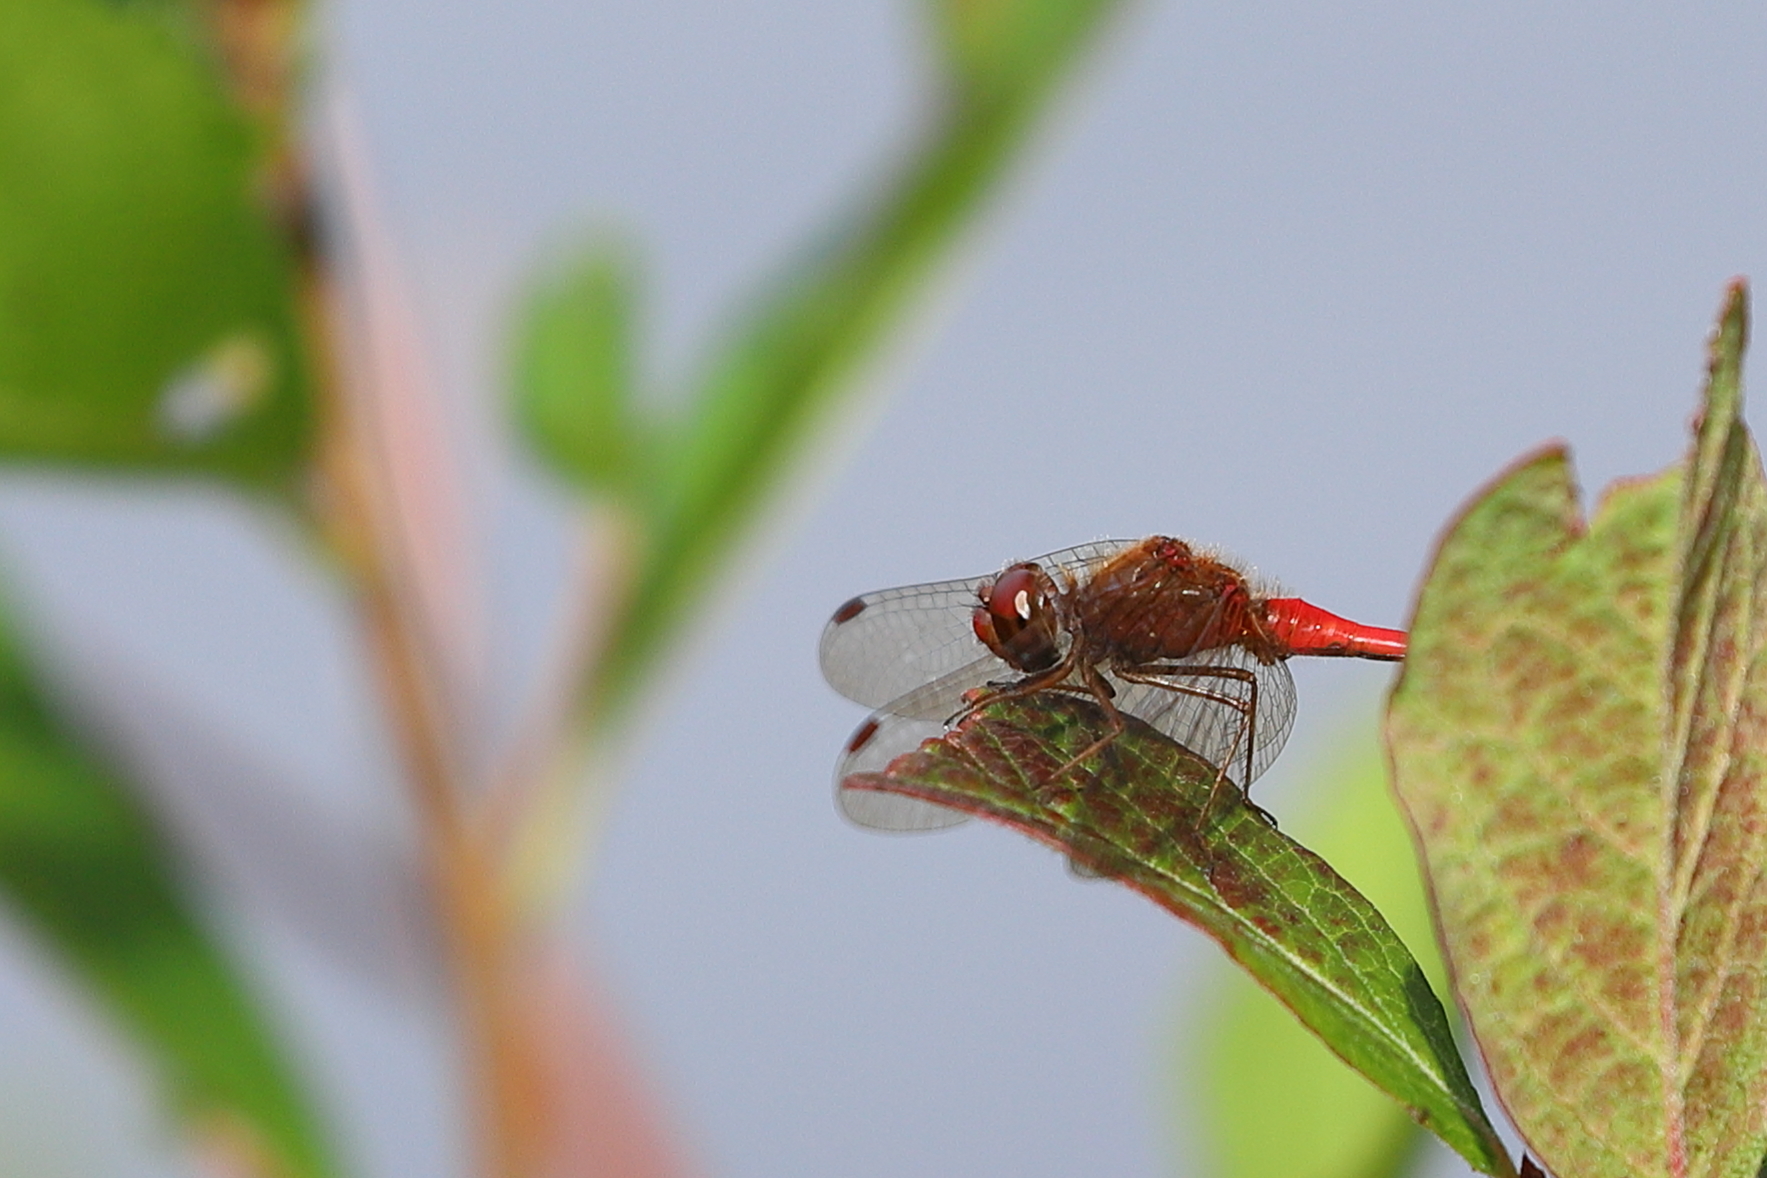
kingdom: Animalia
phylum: Arthropoda
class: Insecta
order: Odonata
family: Libellulidae
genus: Sympetrum
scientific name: Sympetrum vicinum
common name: Autumn meadowhawk
